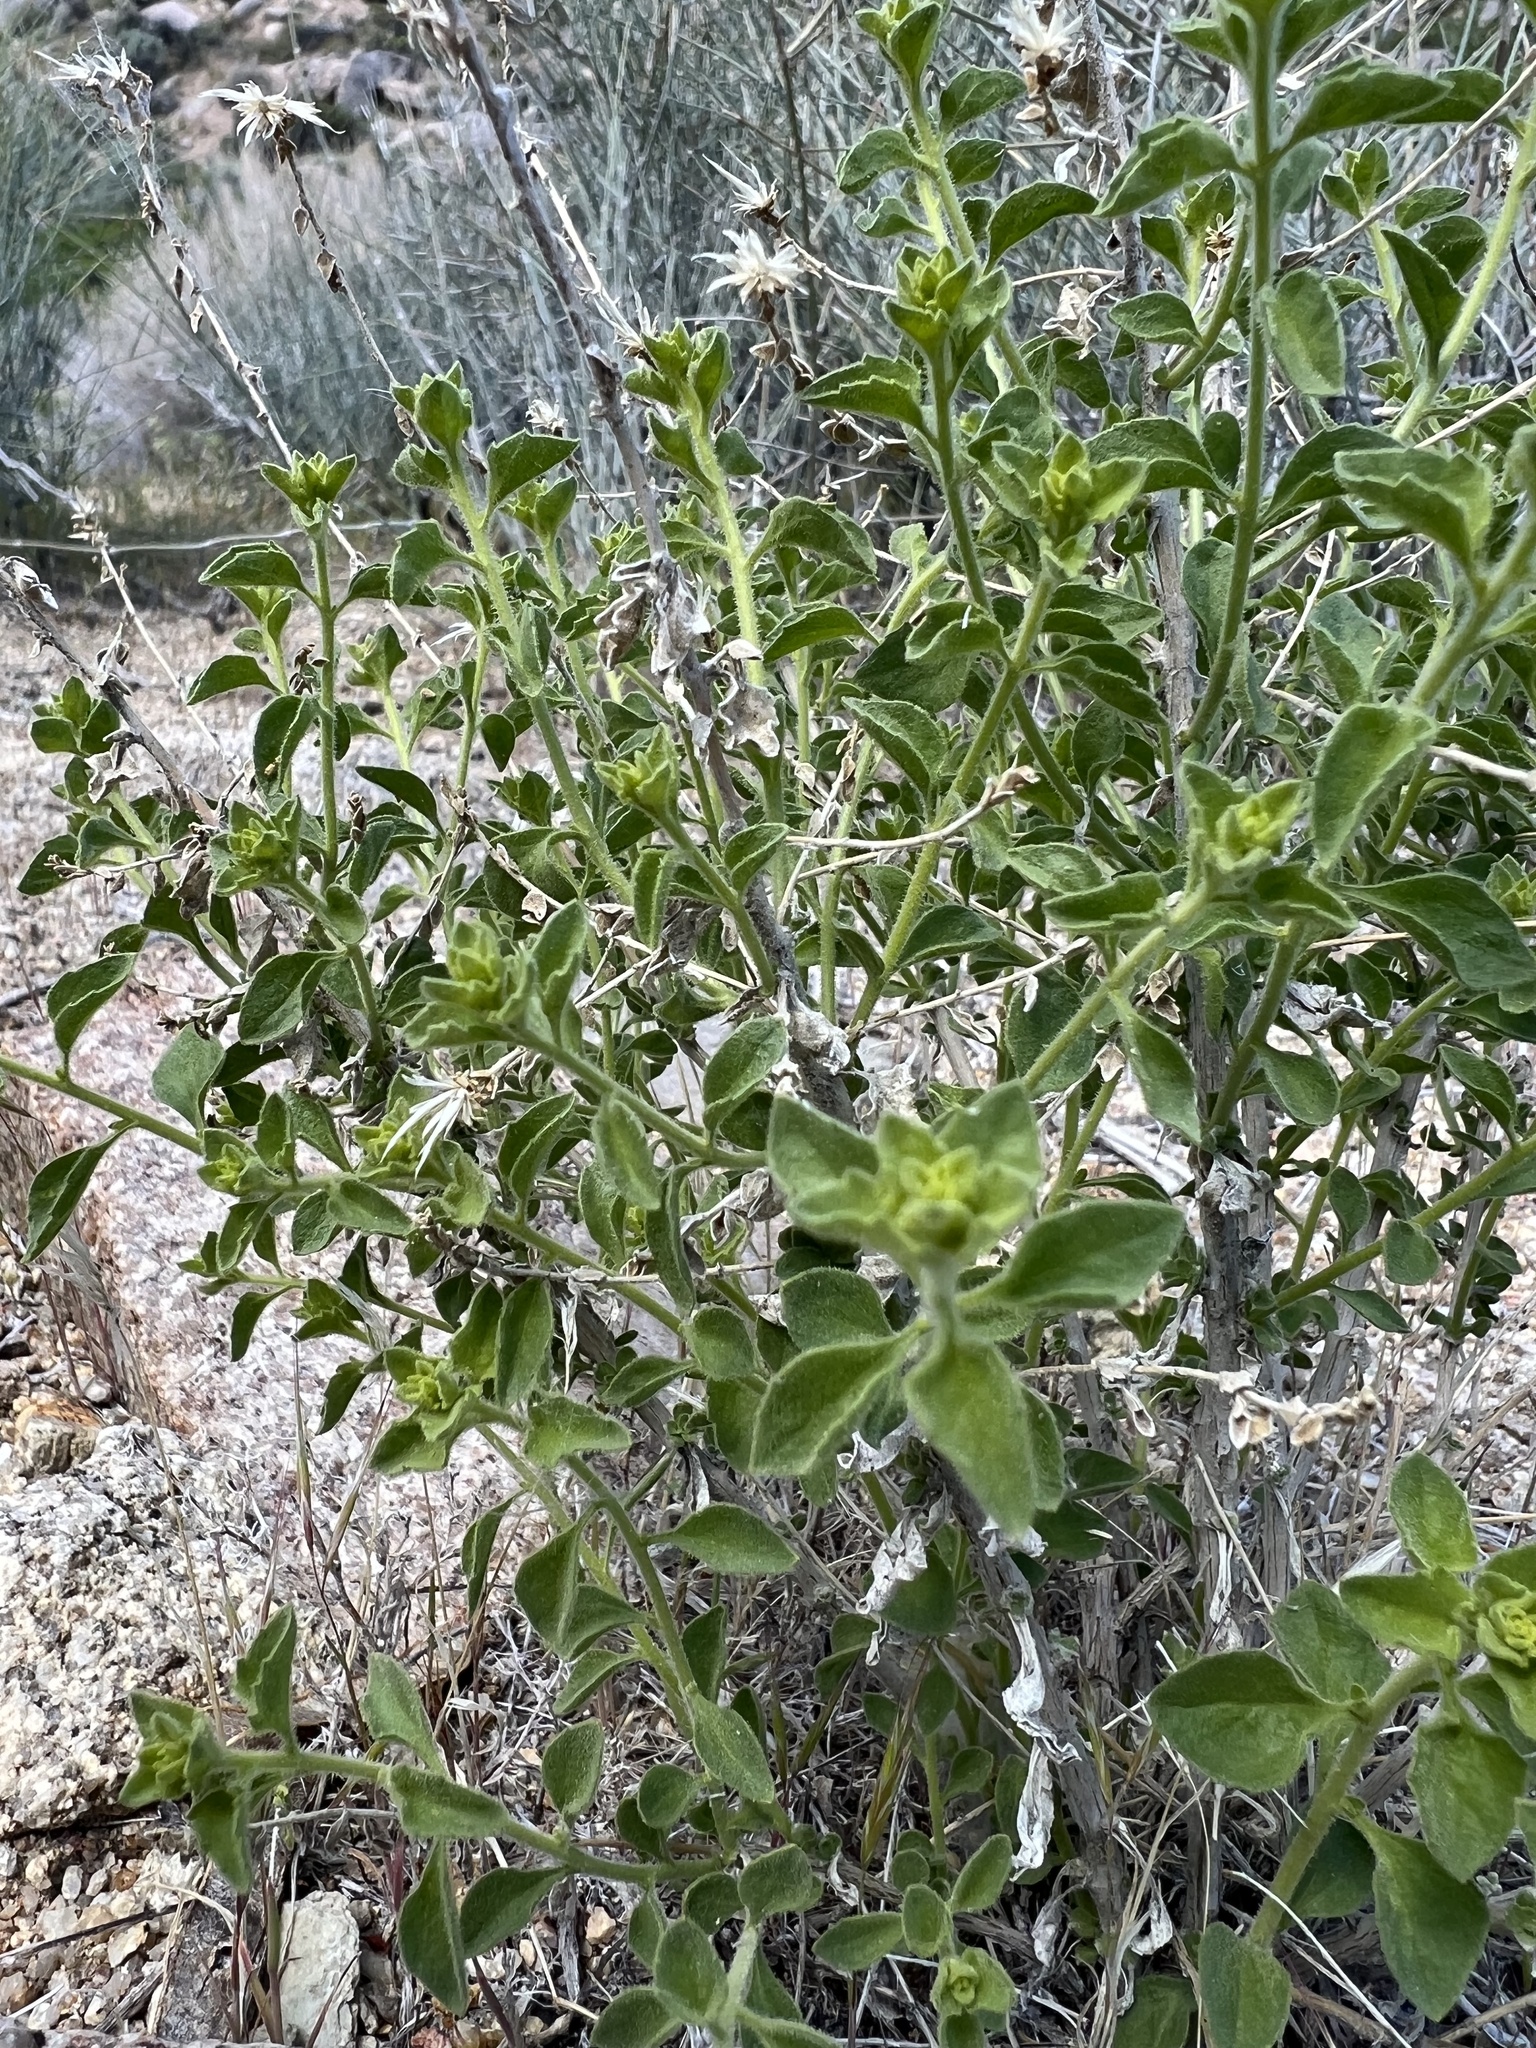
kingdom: Plantae
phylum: Tracheophyta
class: Magnoliopsida
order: Asterales
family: Asteraceae
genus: Brickellia
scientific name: Brickellia microphylla
